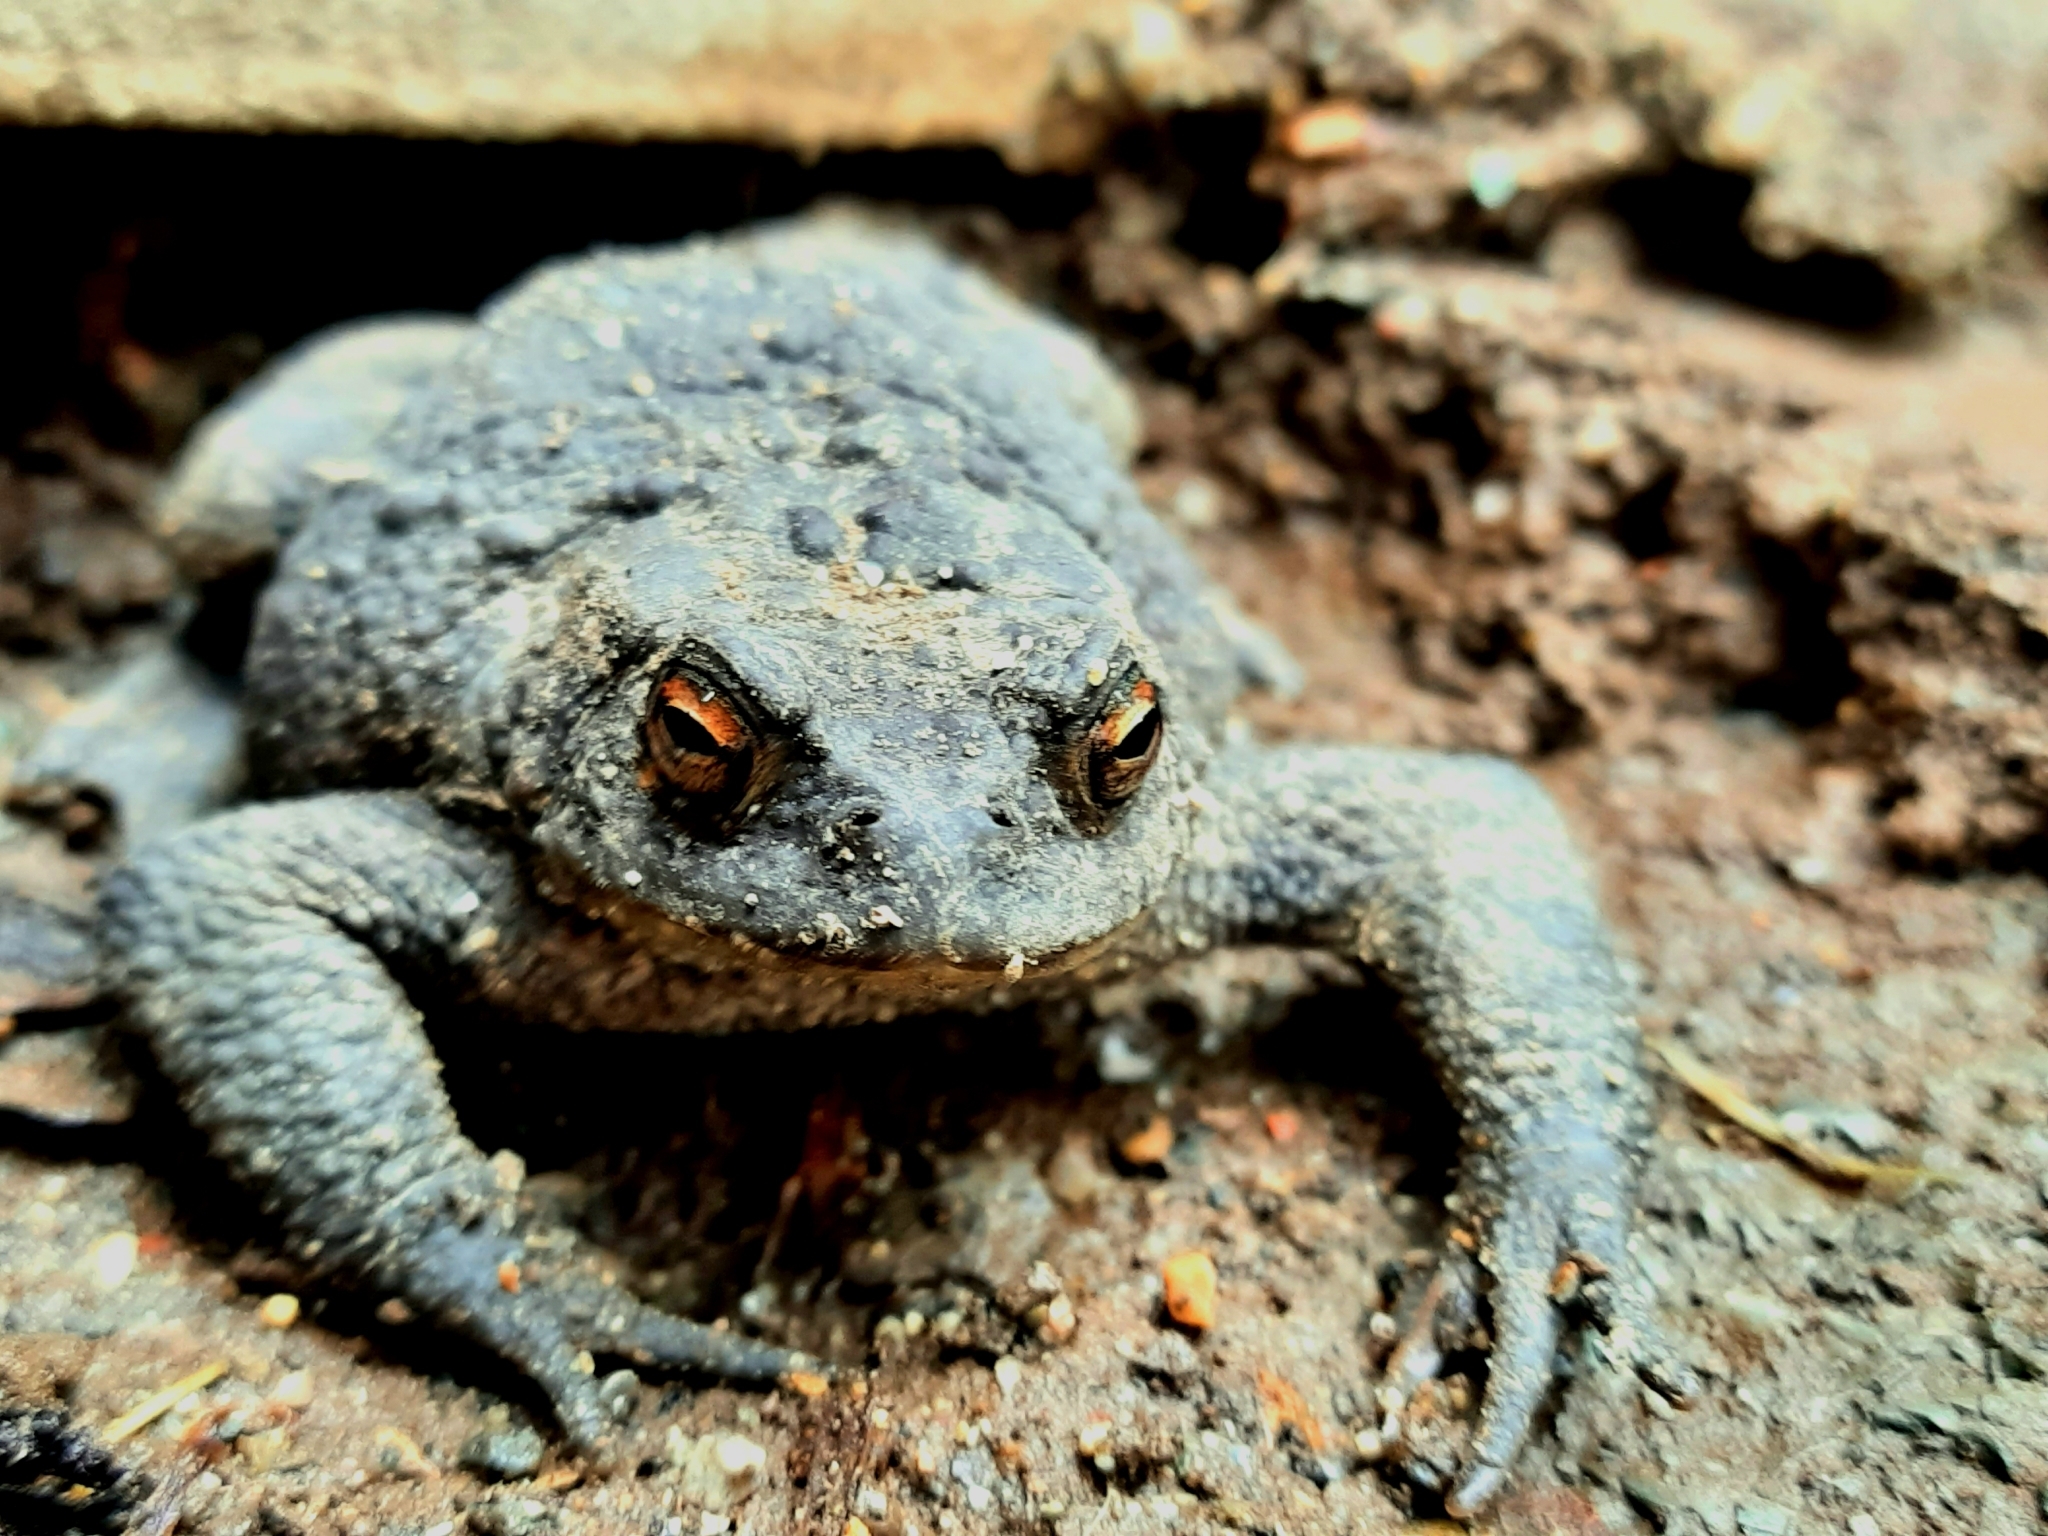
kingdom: Animalia
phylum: Chordata
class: Amphibia
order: Anura
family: Bufonidae
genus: Bufo
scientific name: Bufo bufo
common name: Common toad
